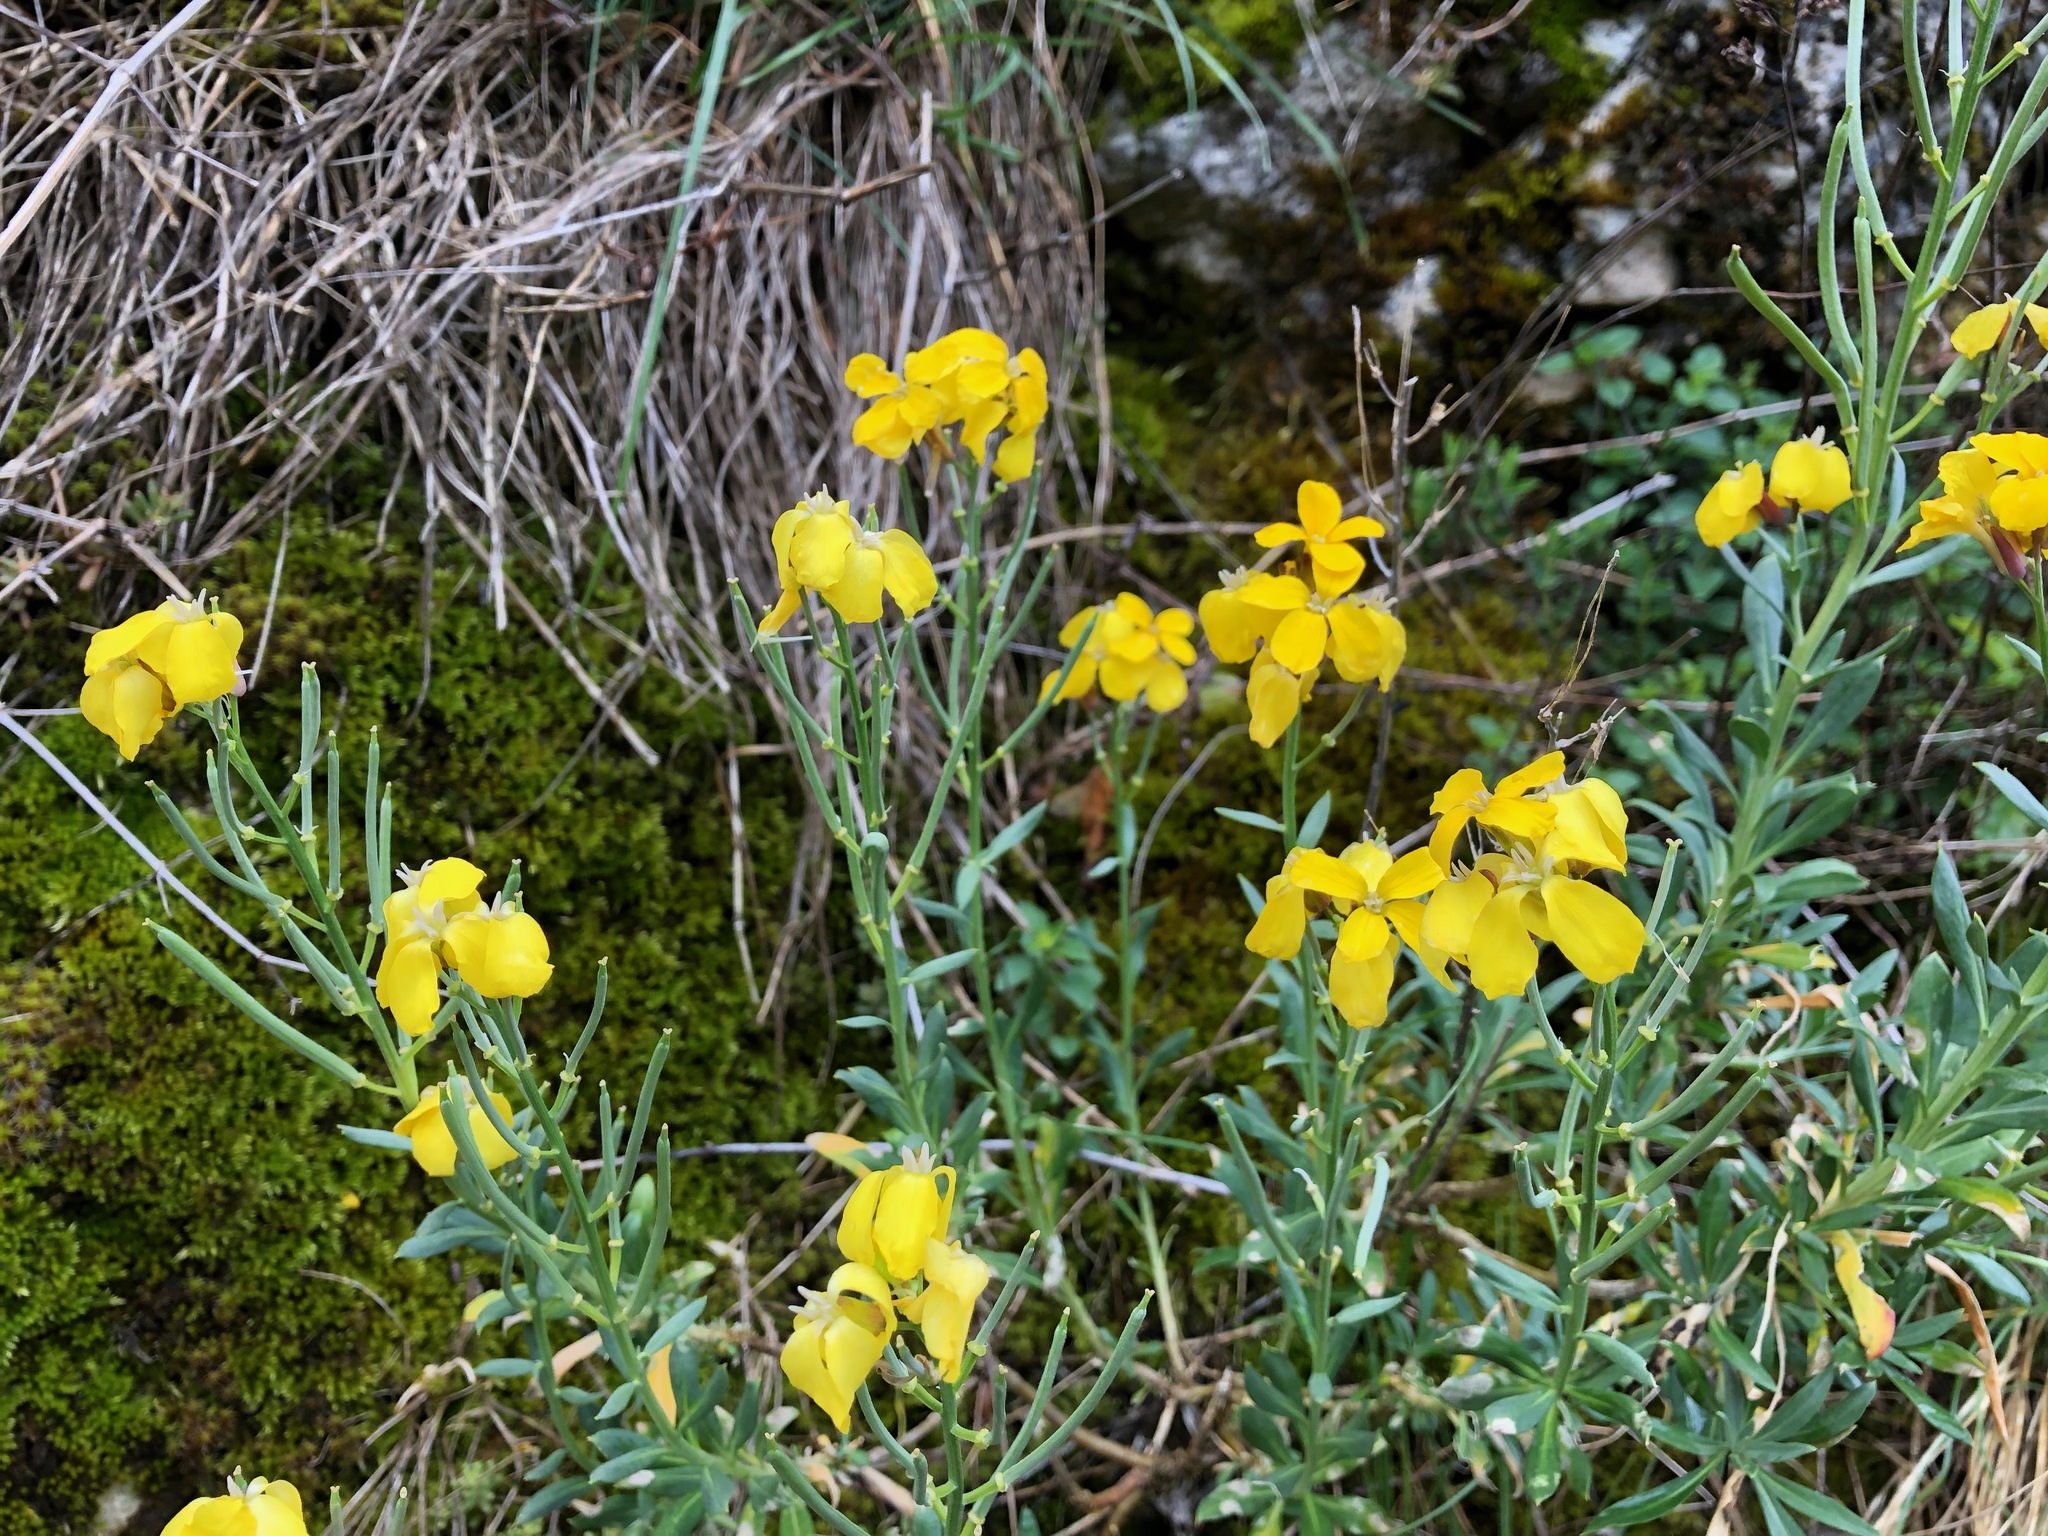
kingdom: Plantae
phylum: Tracheophyta
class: Magnoliopsida
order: Brassicales
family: Brassicaceae
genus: Erysimum
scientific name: Erysimum cheiri
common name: Wallflower
